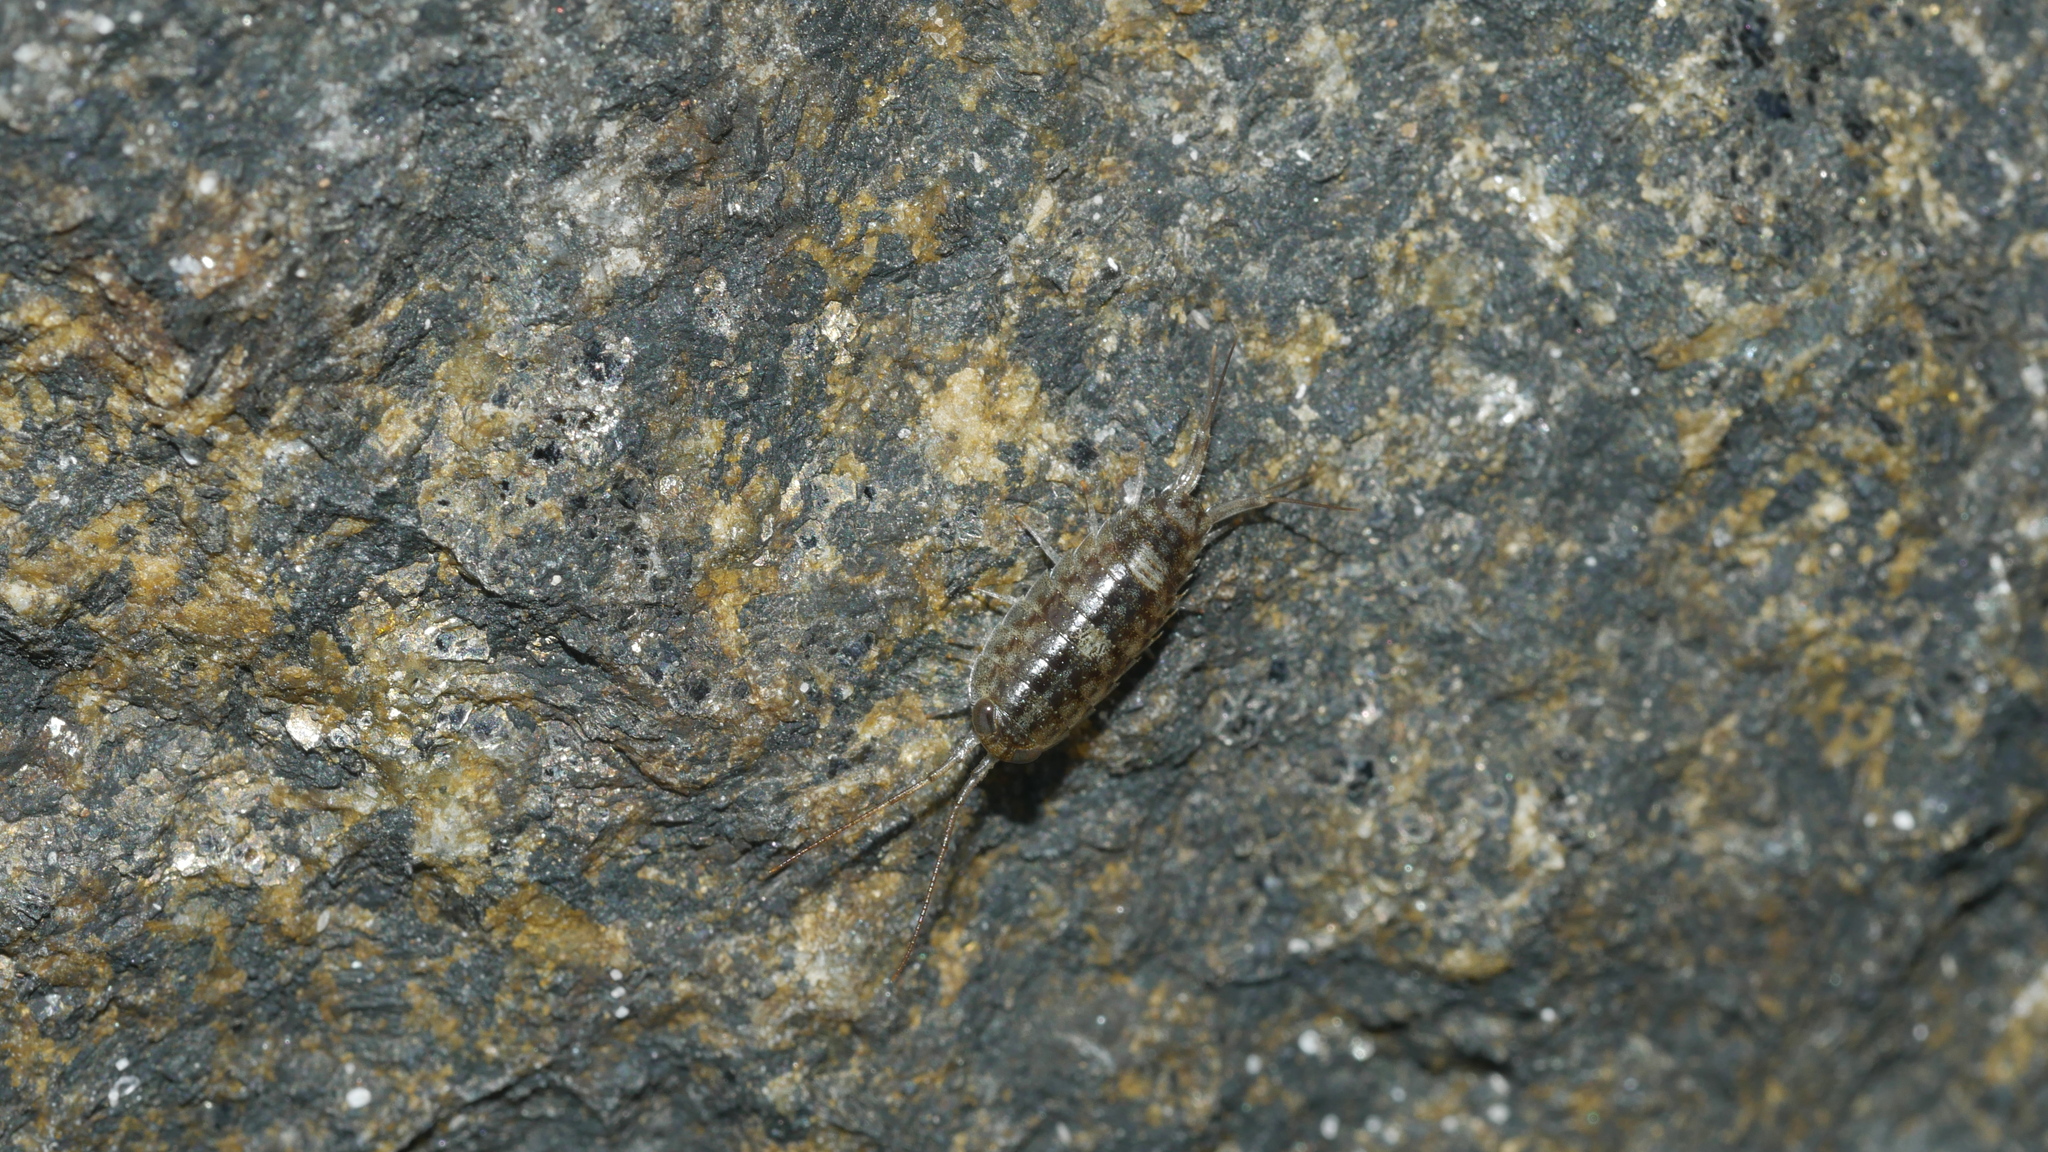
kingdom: Animalia
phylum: Arthropoda
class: Malacostraca
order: Isopoda
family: Ligiidae
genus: Ligia
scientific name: Ligia exotica
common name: Wharf roach
